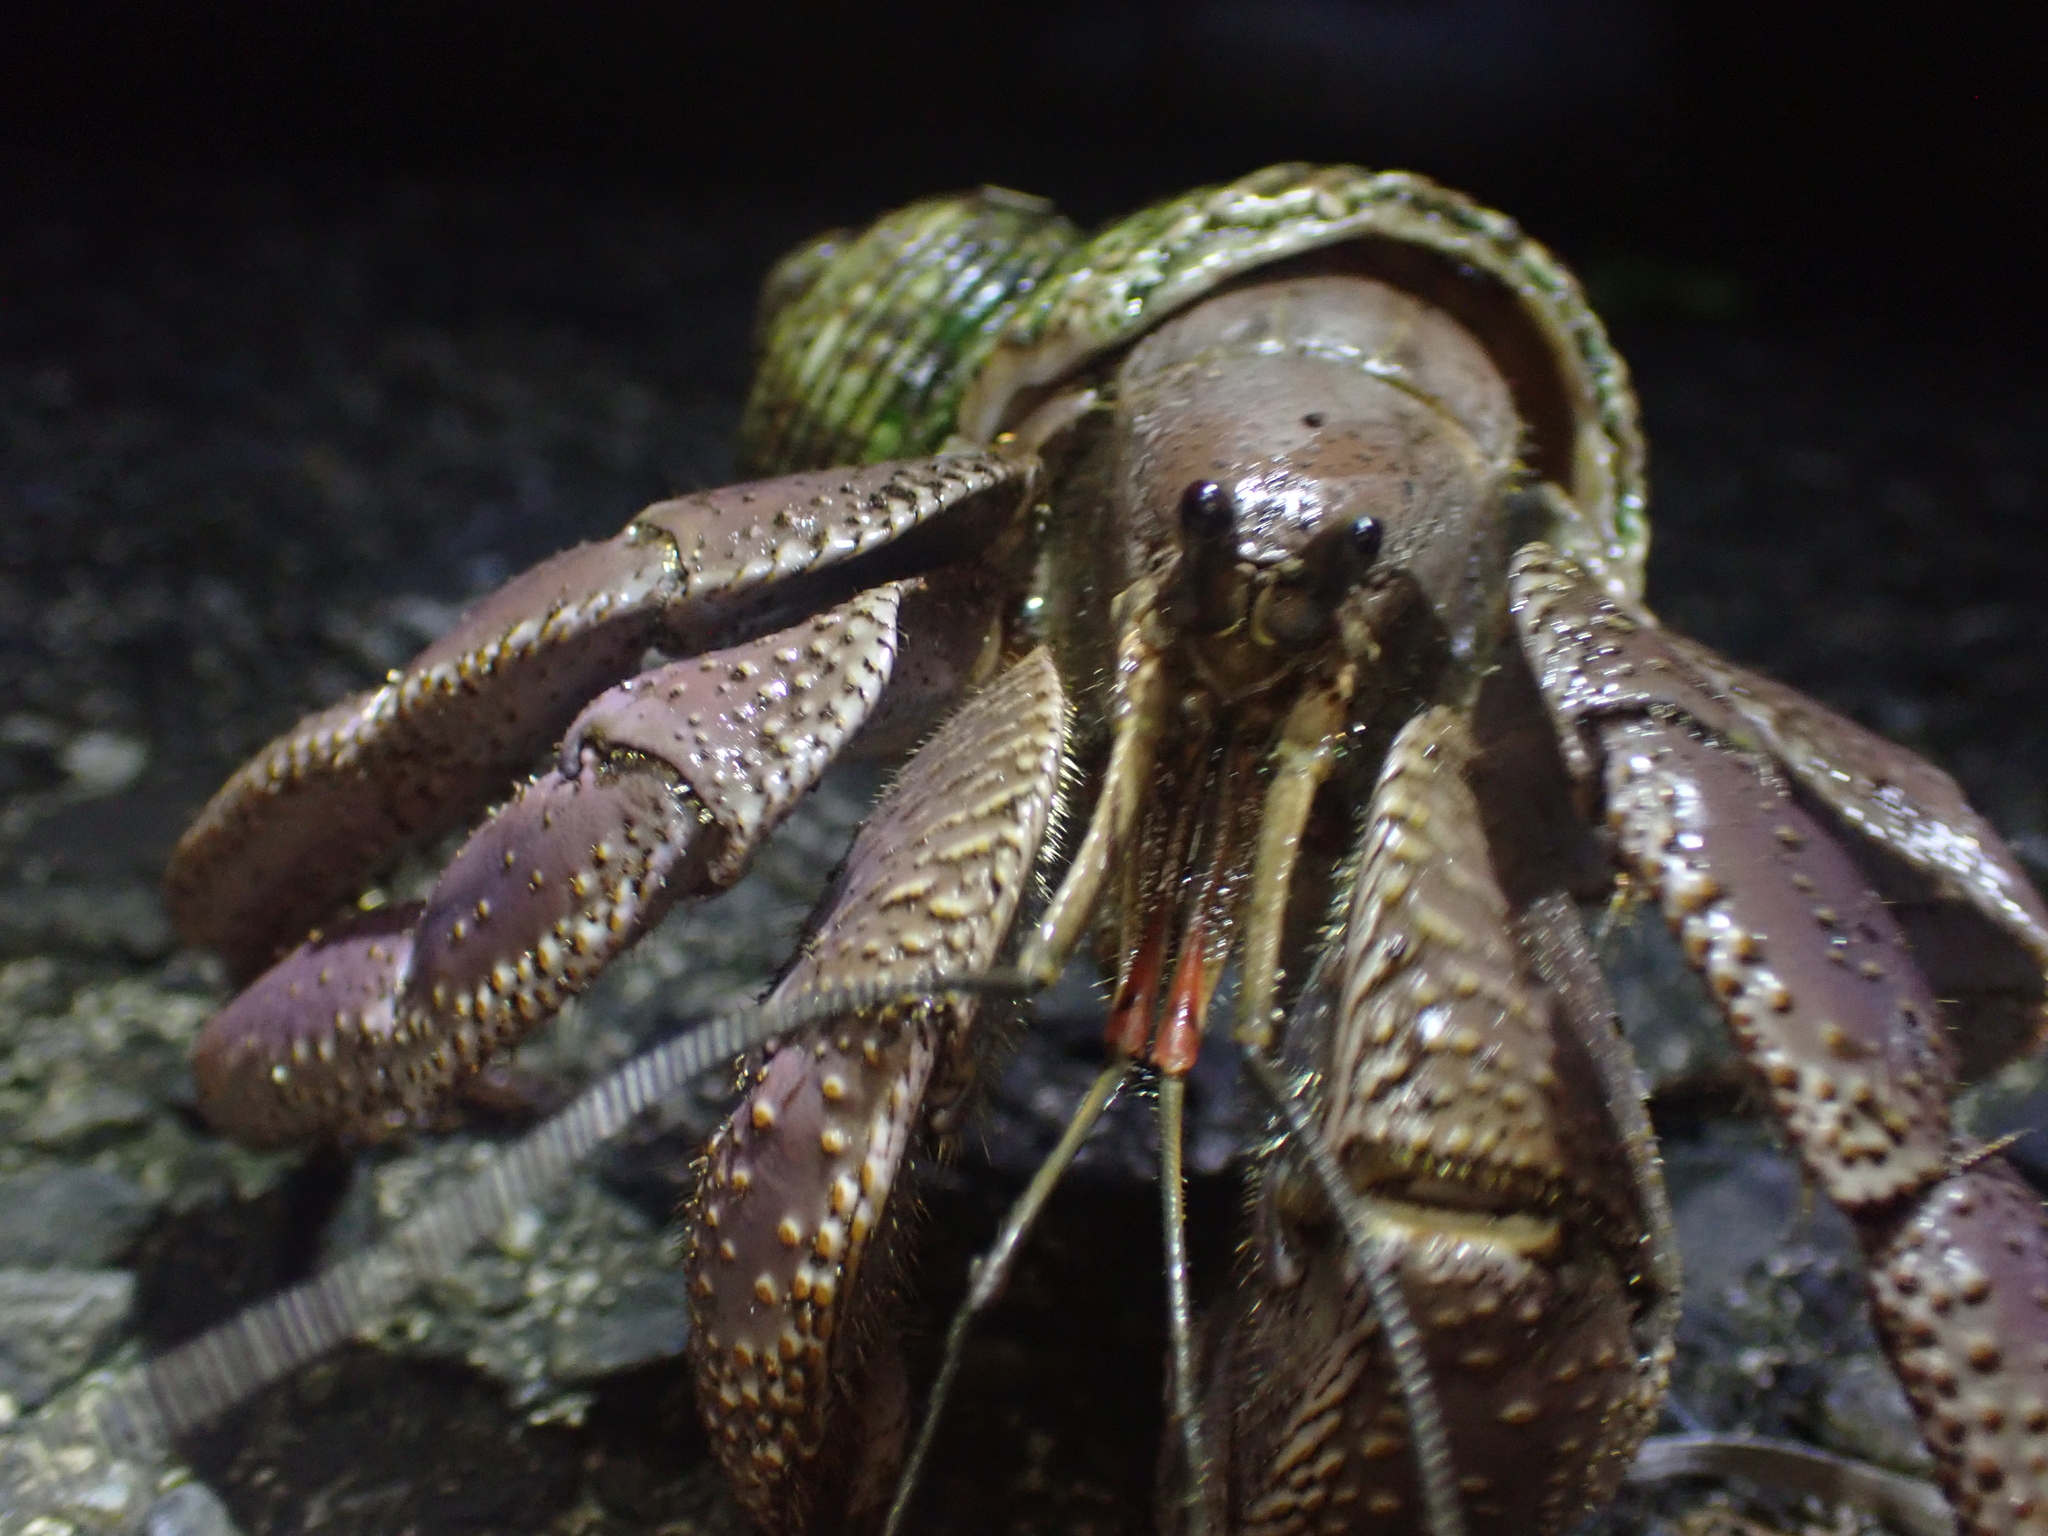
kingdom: Animalia
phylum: Arthropoda
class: Malacostraca
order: Decapoda
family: Coenobitidae
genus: Coenobita
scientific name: Coenobita brevimanus
